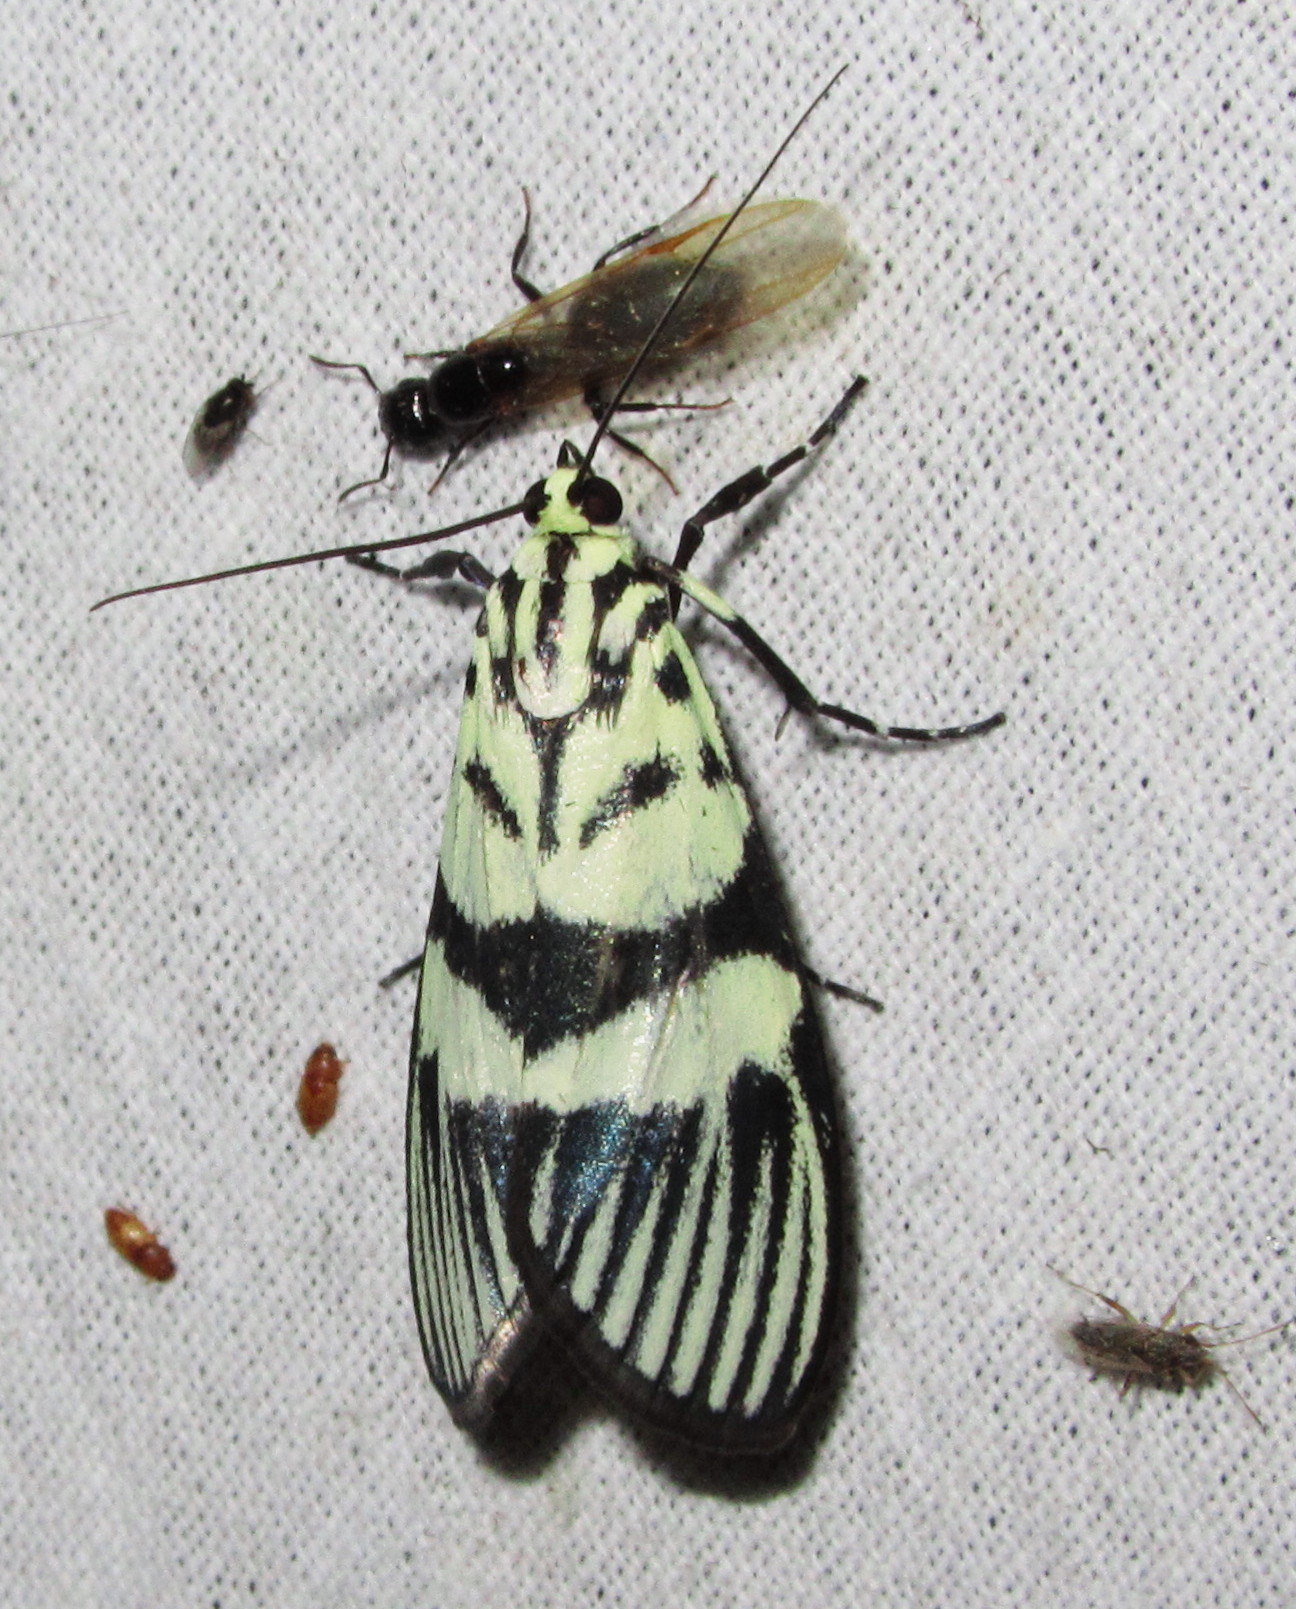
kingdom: Animalia
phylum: Arthropoda
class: Insecta
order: Lepidoptera
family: Crambidae
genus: Heortia
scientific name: Heortia vitessoides
